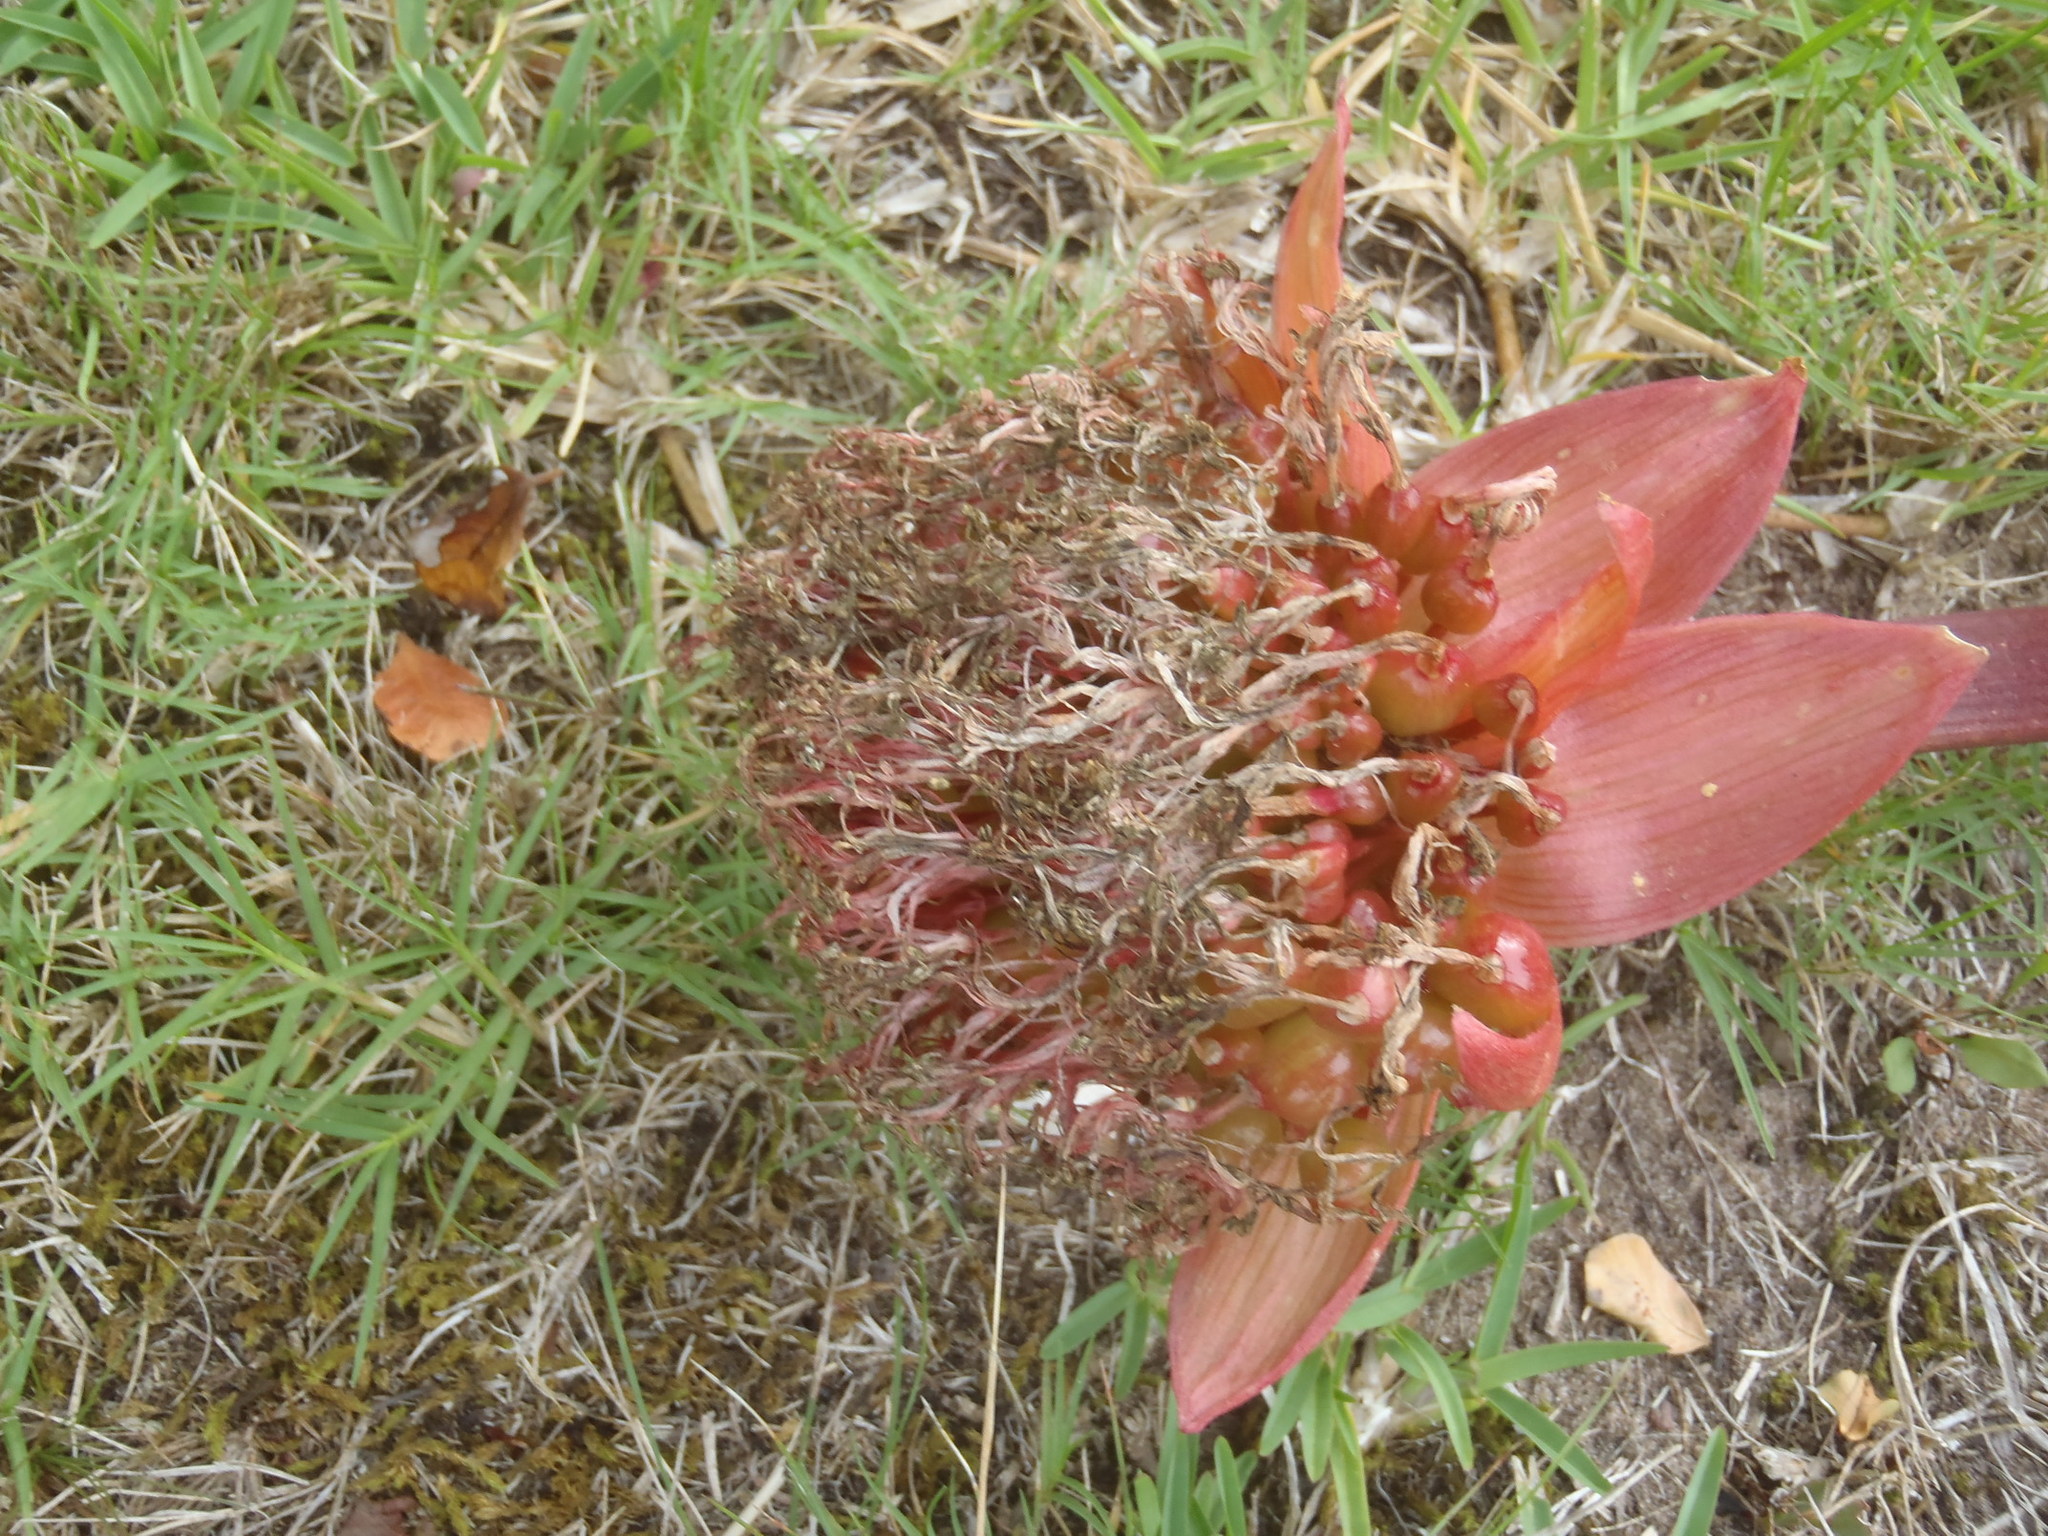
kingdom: Plantae
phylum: Tracheophyta
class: Liliopsida
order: Asparagales
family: Amaryllidaceae
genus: Haemanthus
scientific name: Haemanthus sanguineus
